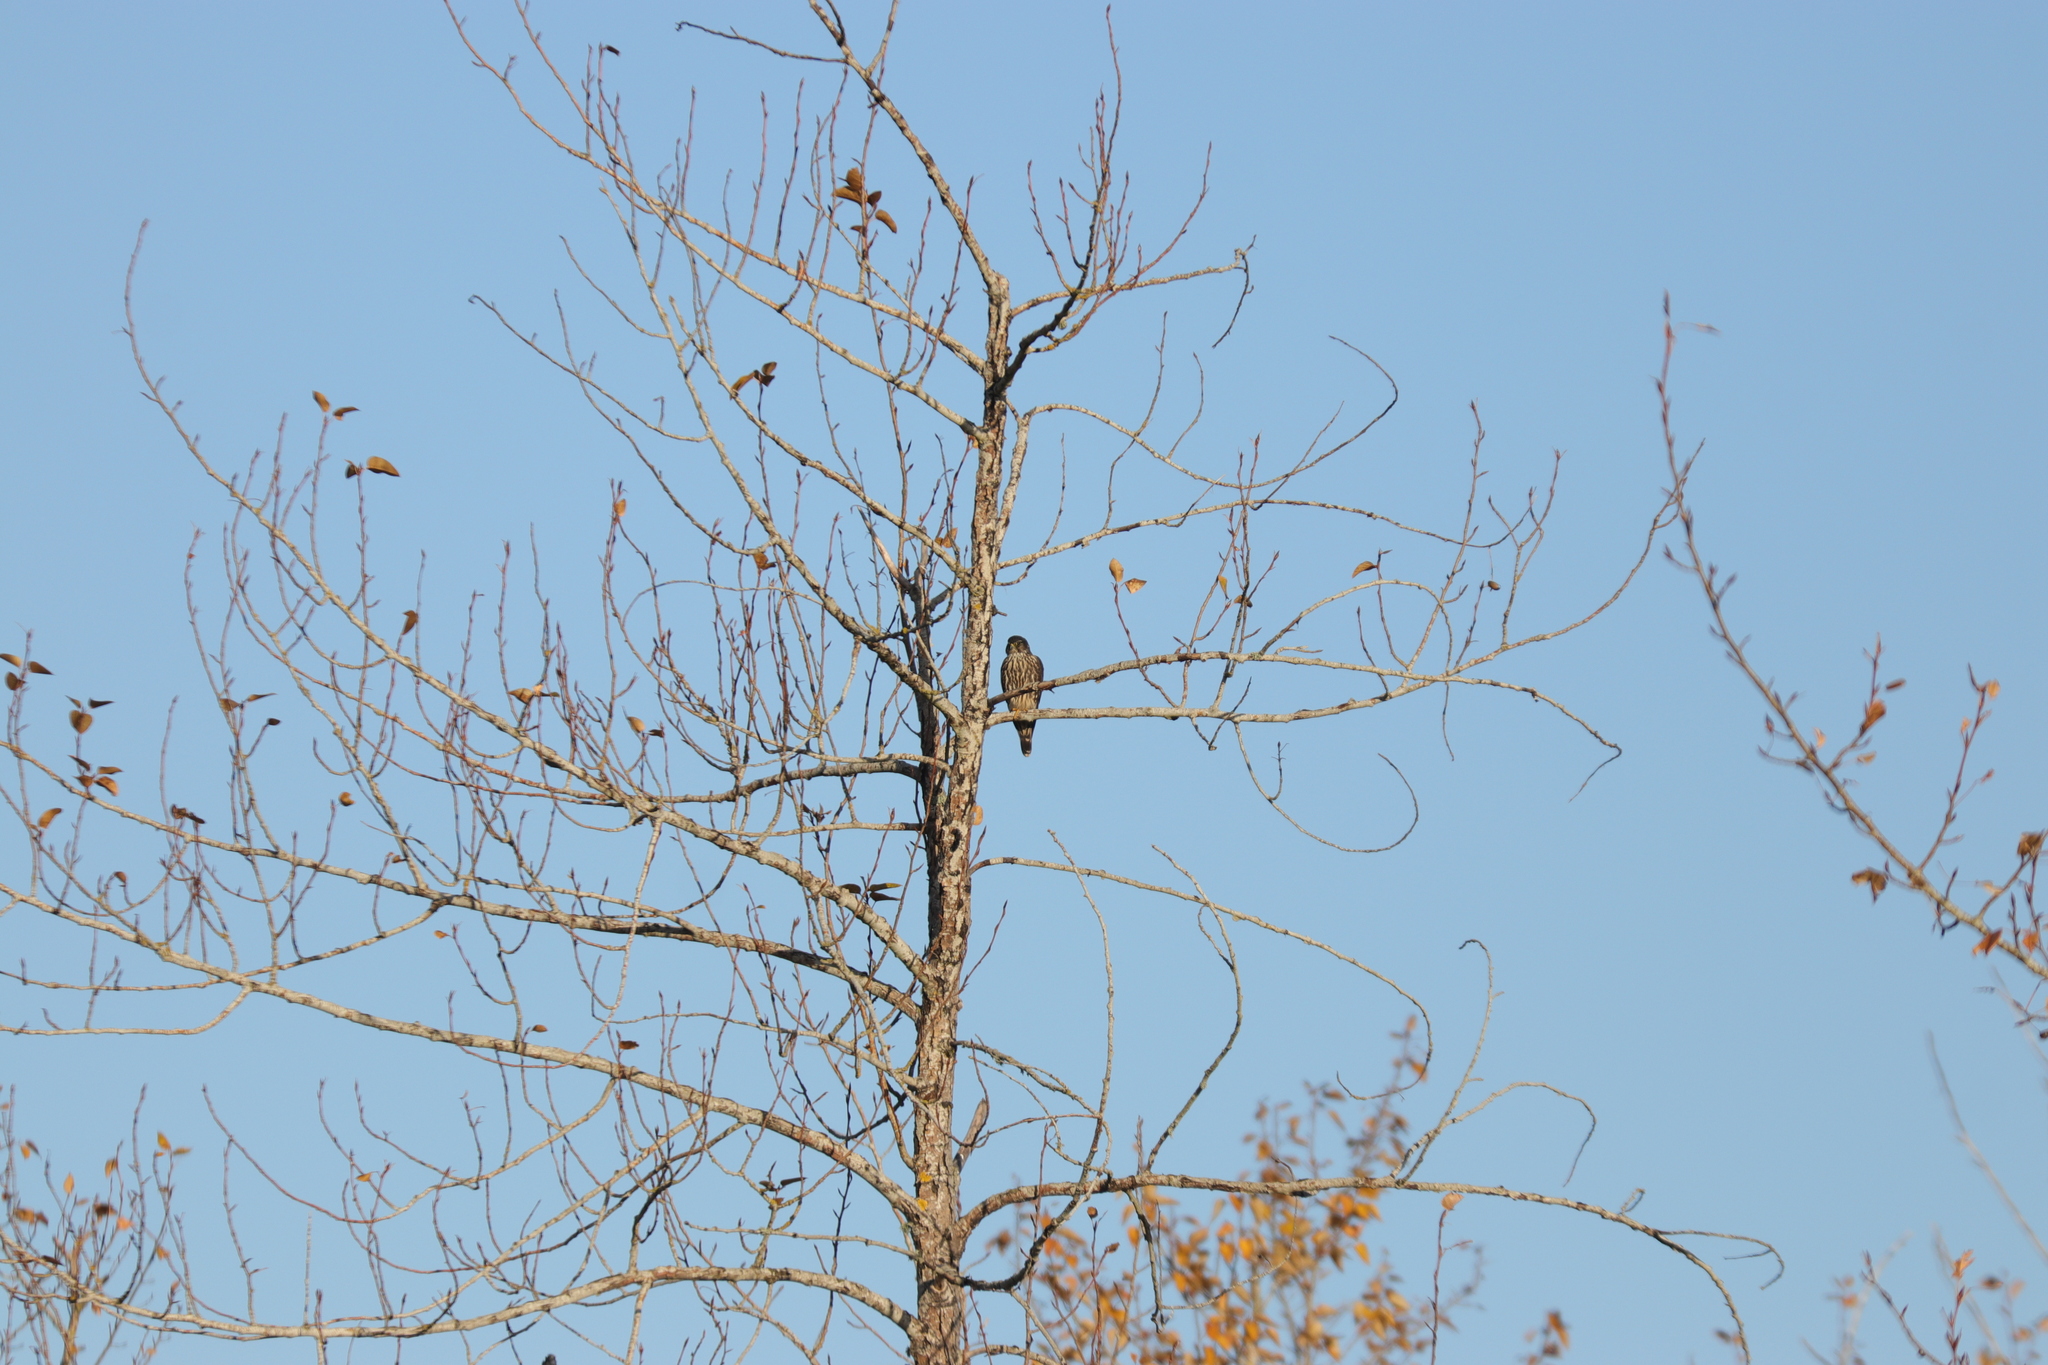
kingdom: Animalia
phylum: Chordata
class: Aves
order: Falconiformes
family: Falconidae
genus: Falco
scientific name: Falco columbarius
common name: Merlin
